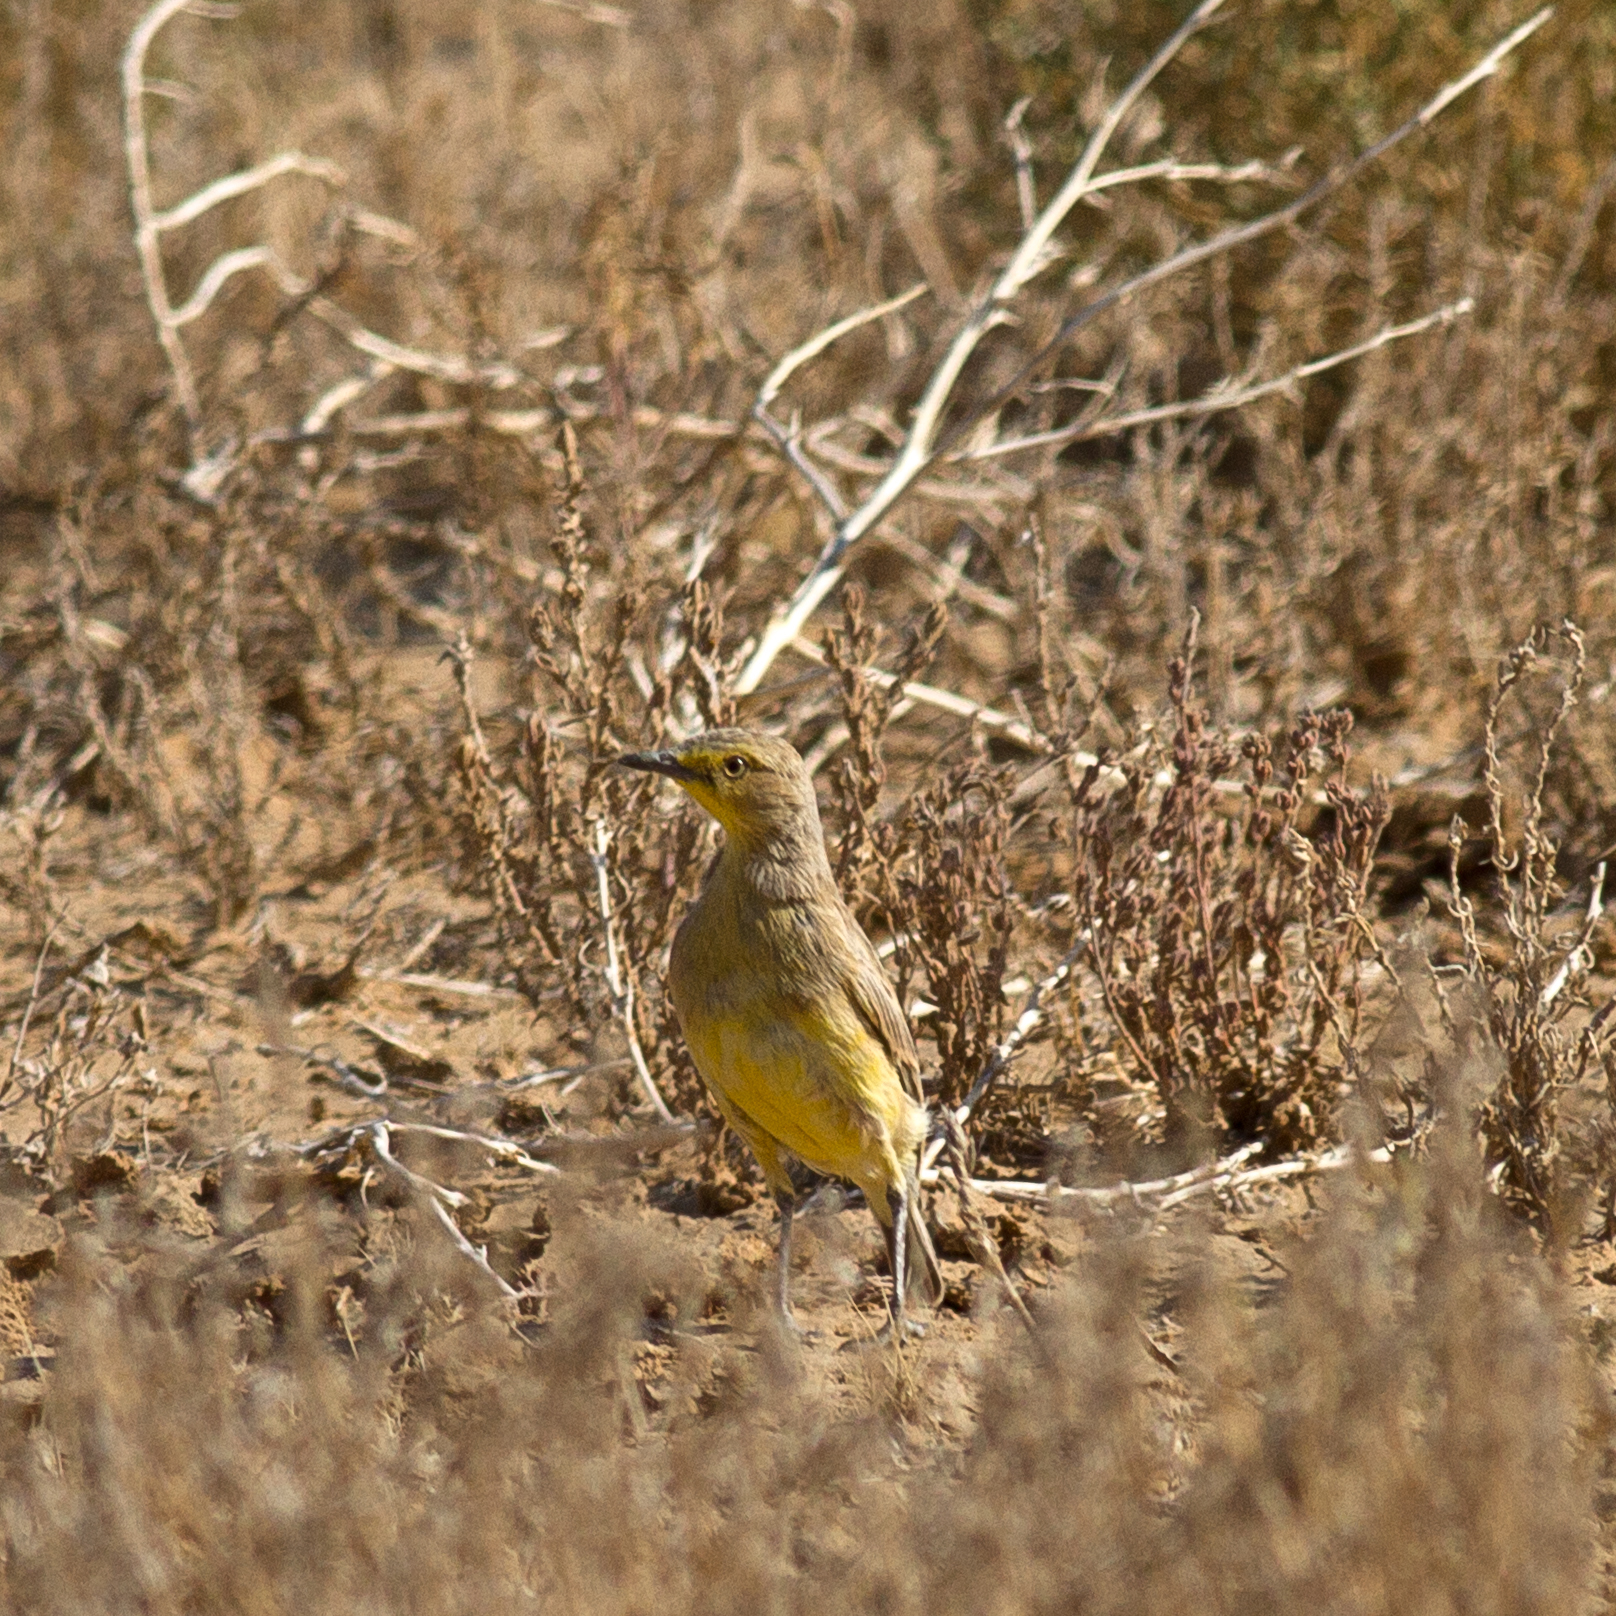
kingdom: Animalia
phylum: Chordata
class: Aves
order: Passeriformes
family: Meliphagidae
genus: Ashbyia
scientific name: Ashbyia lovensis
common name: Gibberbird
